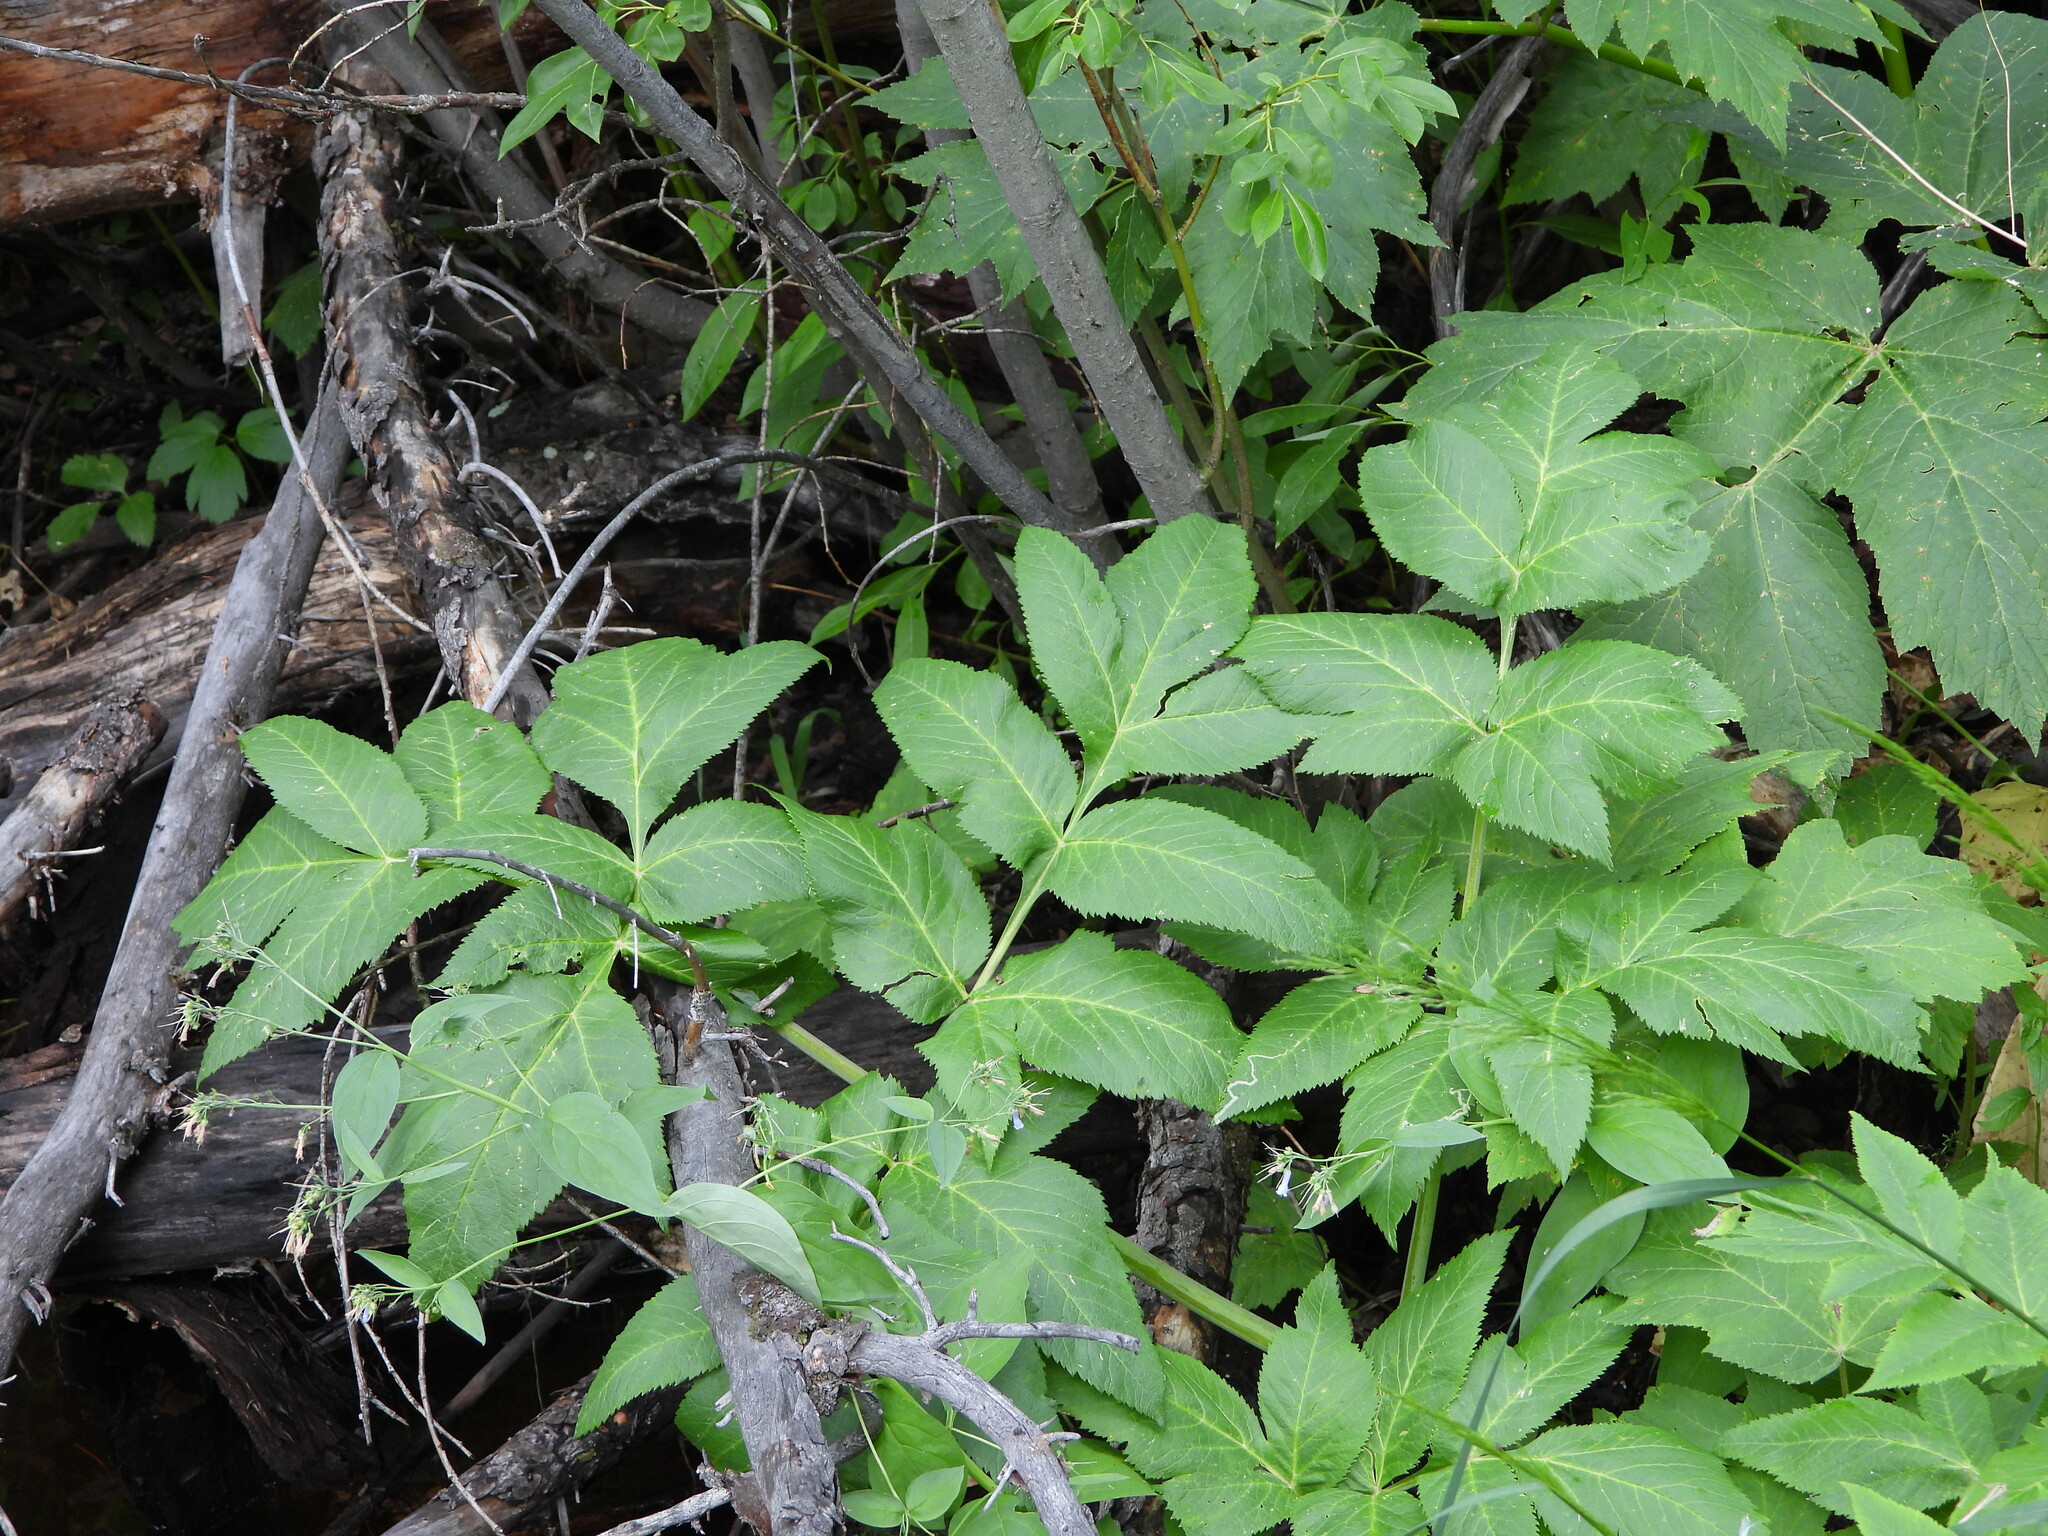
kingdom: Plantae
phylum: Tracheophyta
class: Magnoliopsida
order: Apiales
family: Apiaceae
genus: Angelica
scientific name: Angelica ampla
